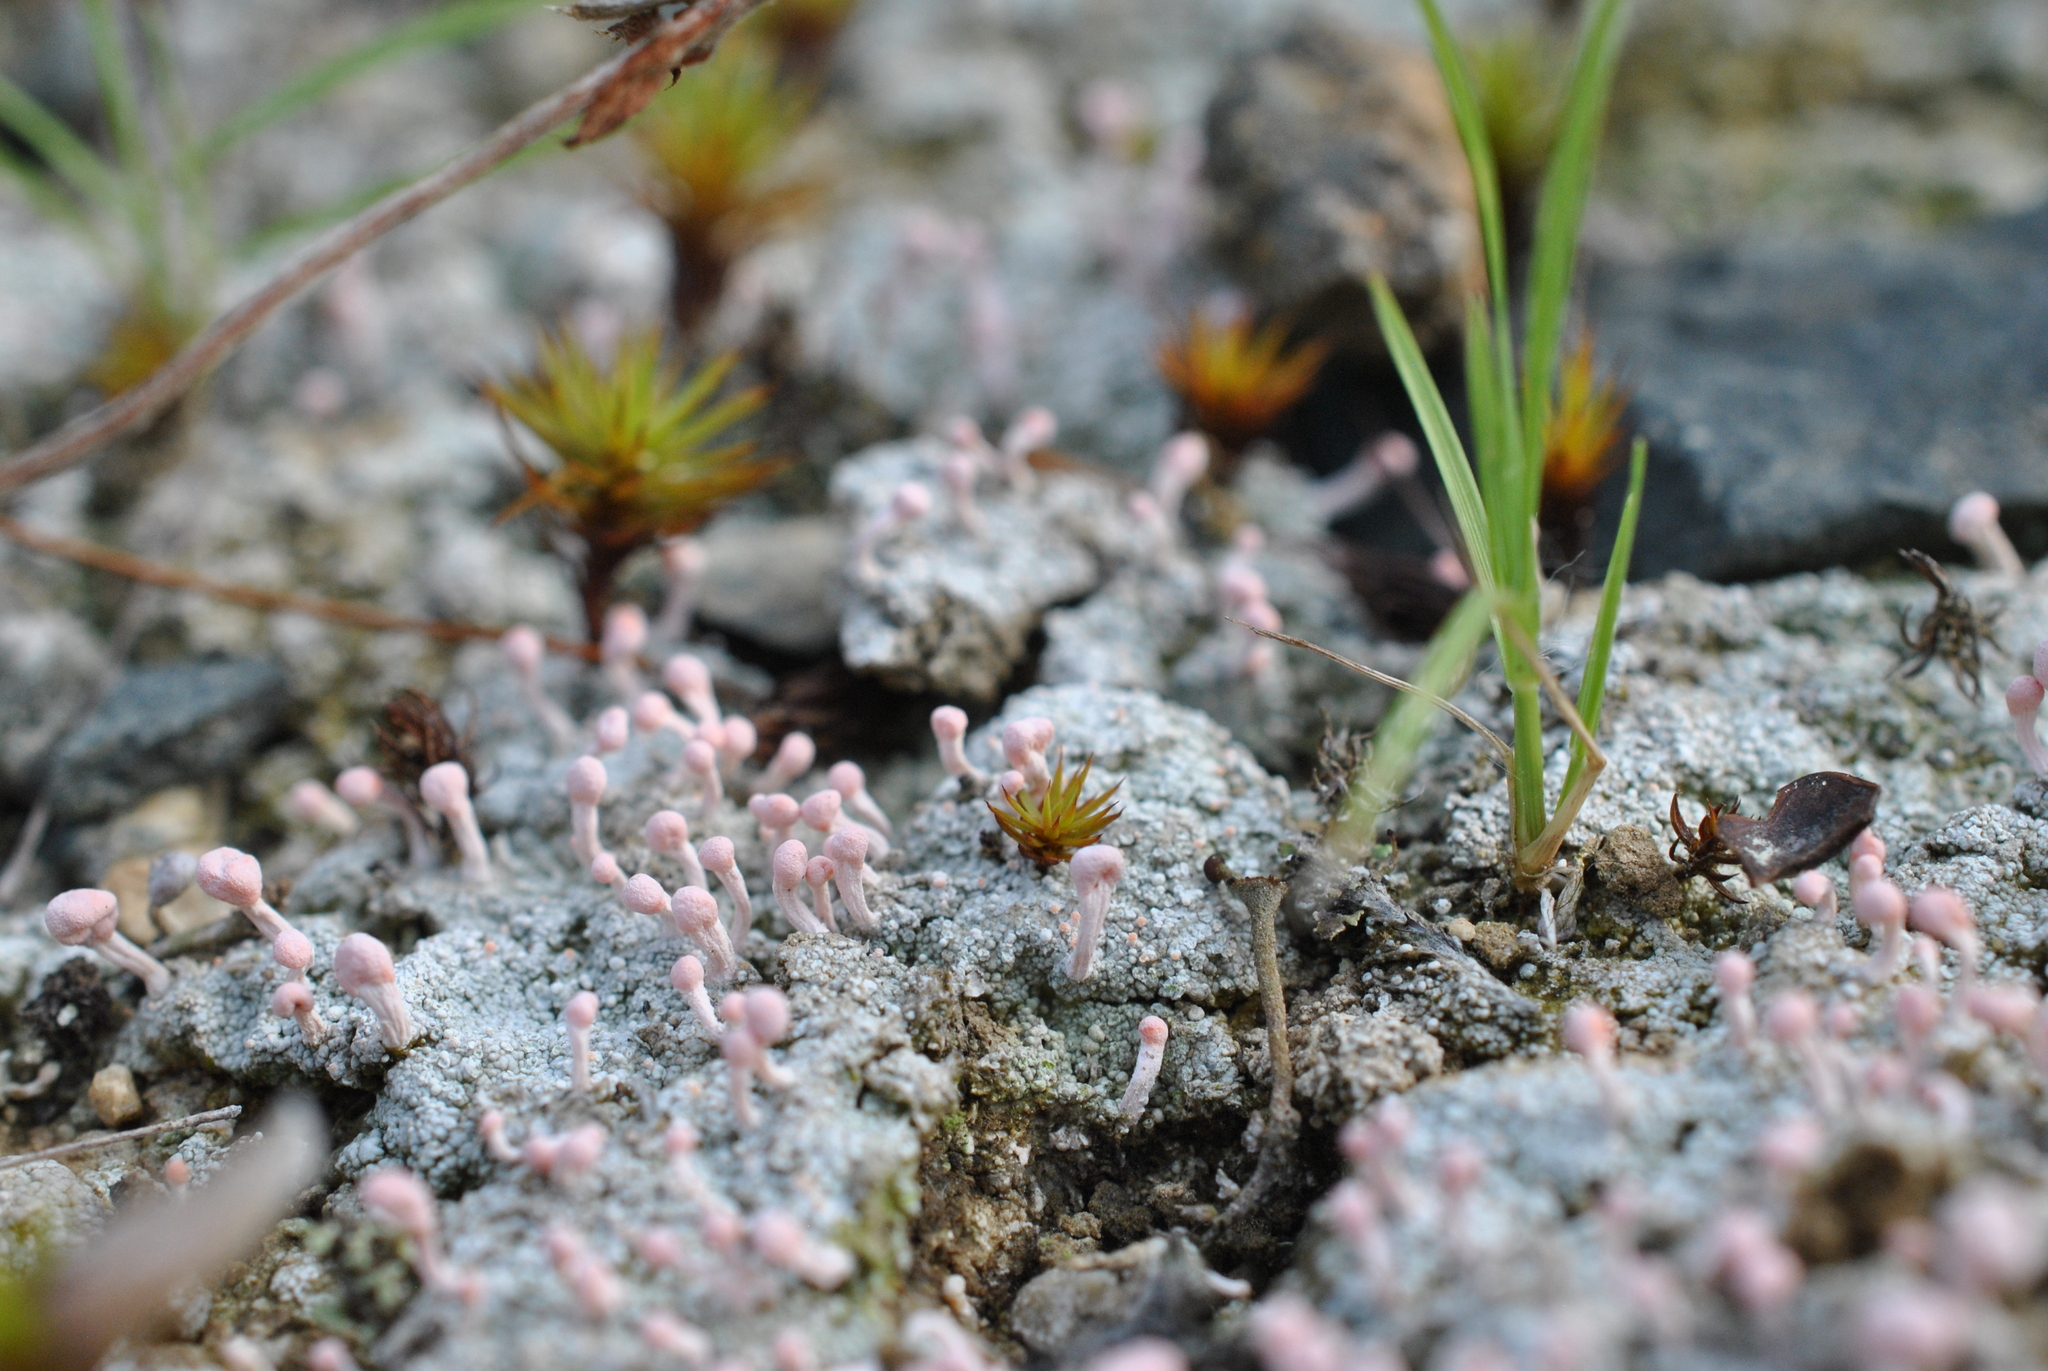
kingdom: Fungi
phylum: Ascomycota
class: Lecanoromycetes
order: Pertusariales
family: Icmadophilaceae
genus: Dibaeis
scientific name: Dibaeis baeomyces
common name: Pink earth lichen
